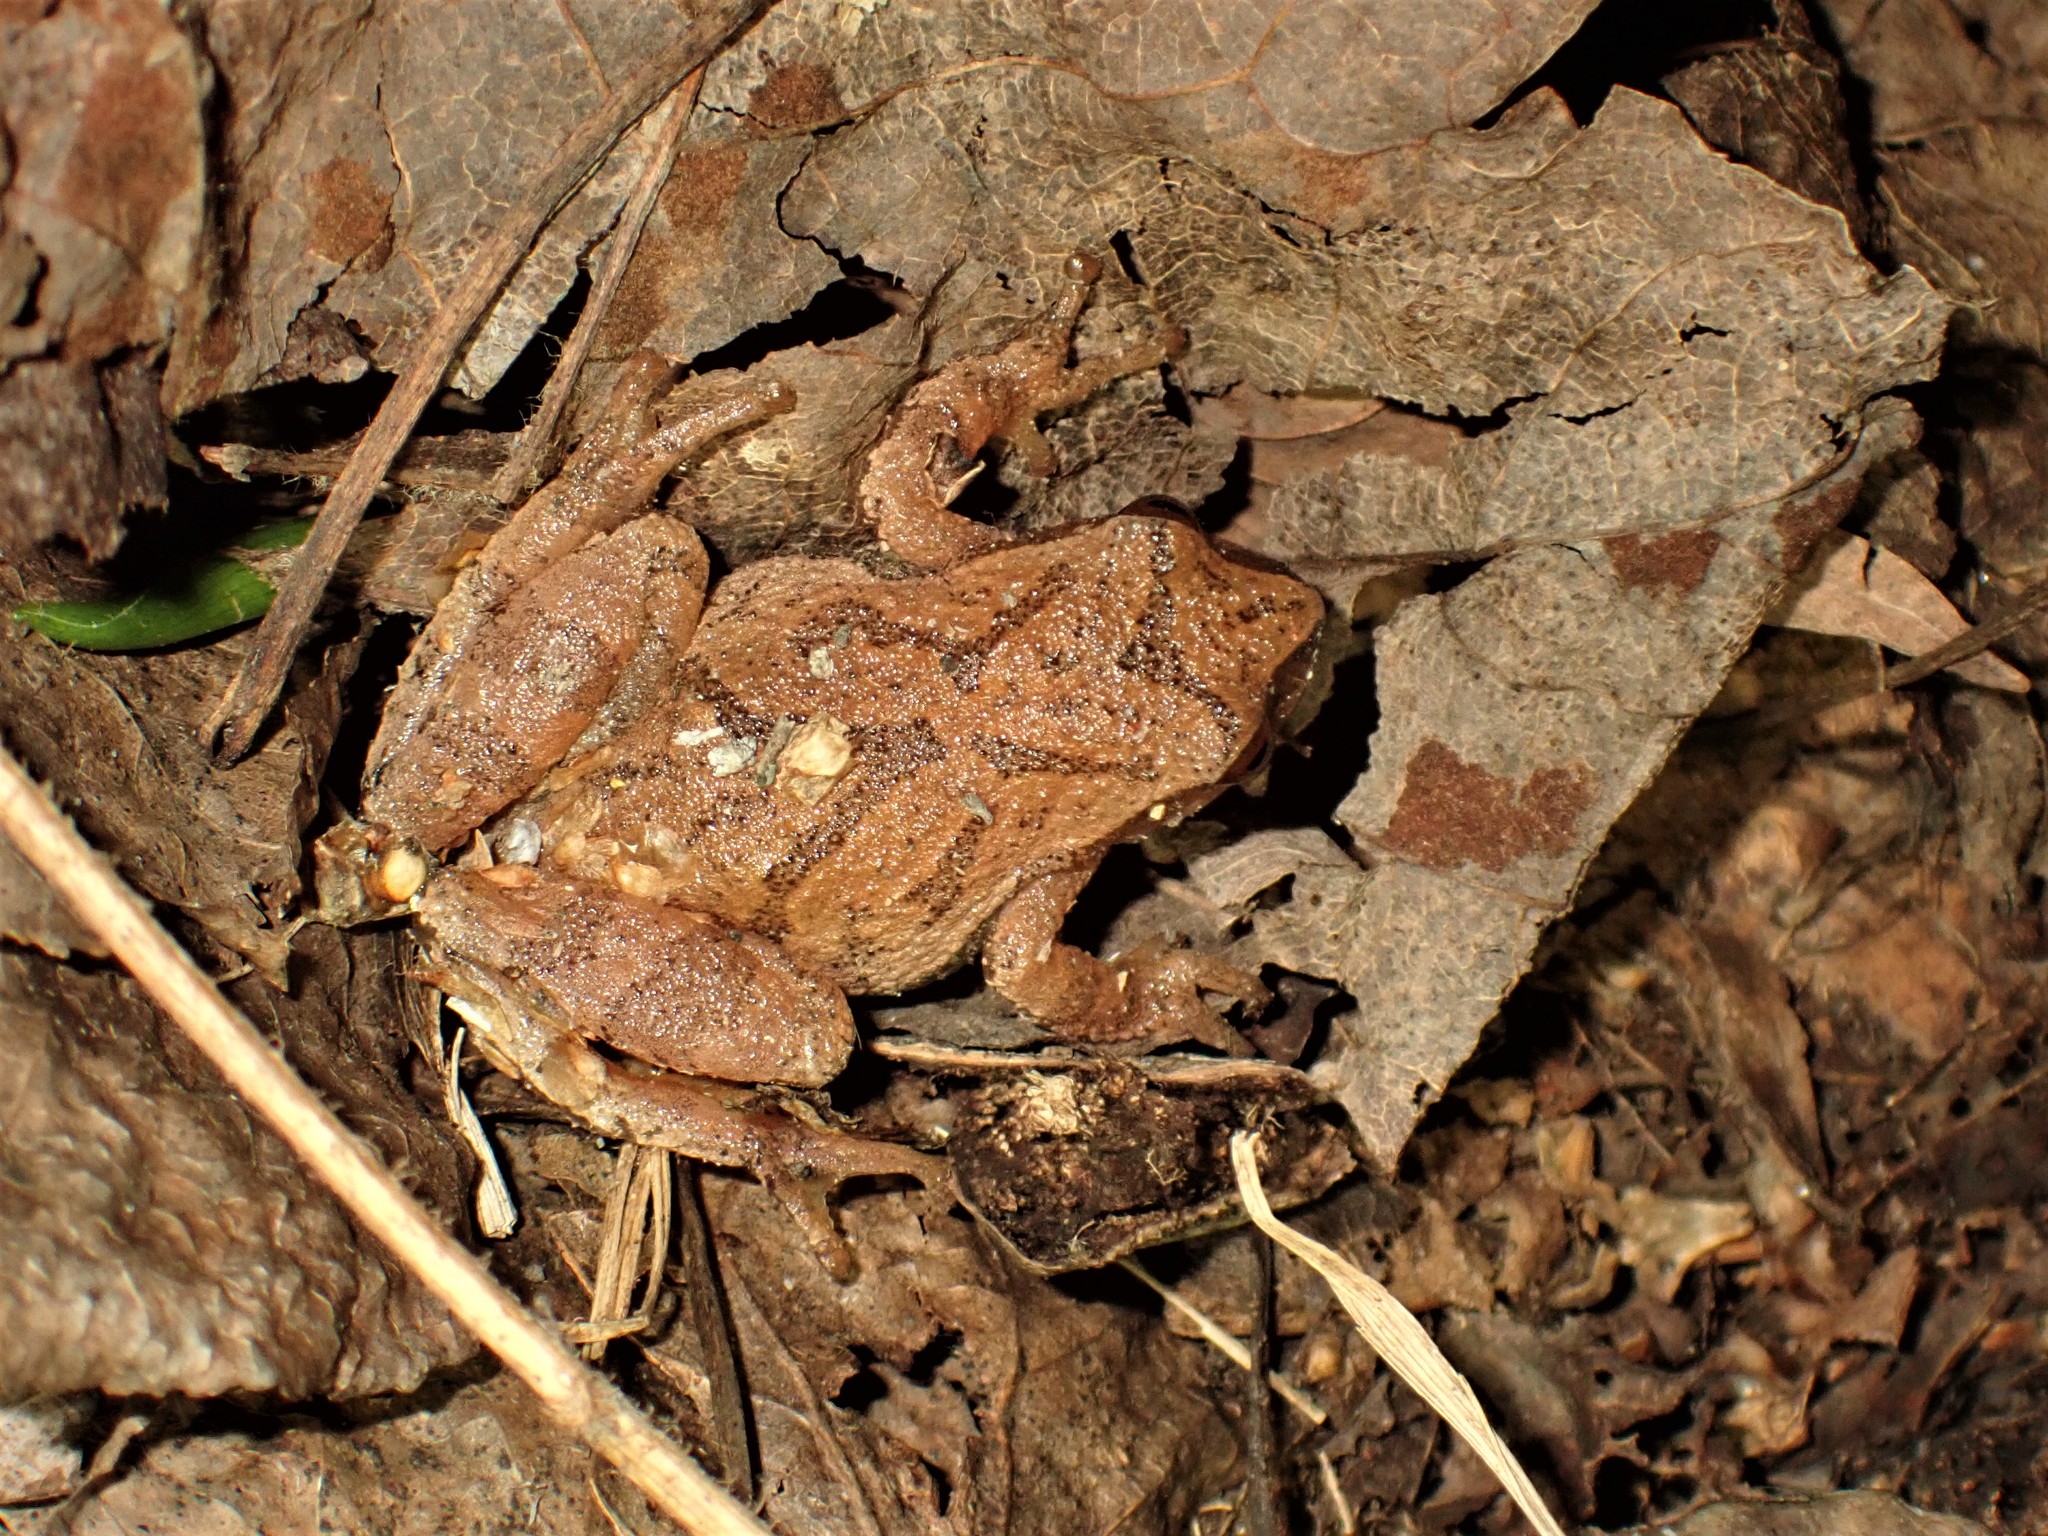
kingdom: Animalia
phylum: Chordata
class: Amphibia
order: Anura
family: Hylidae
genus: Pseudacris
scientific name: Pseudacris crucifer
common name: Spring peeper
